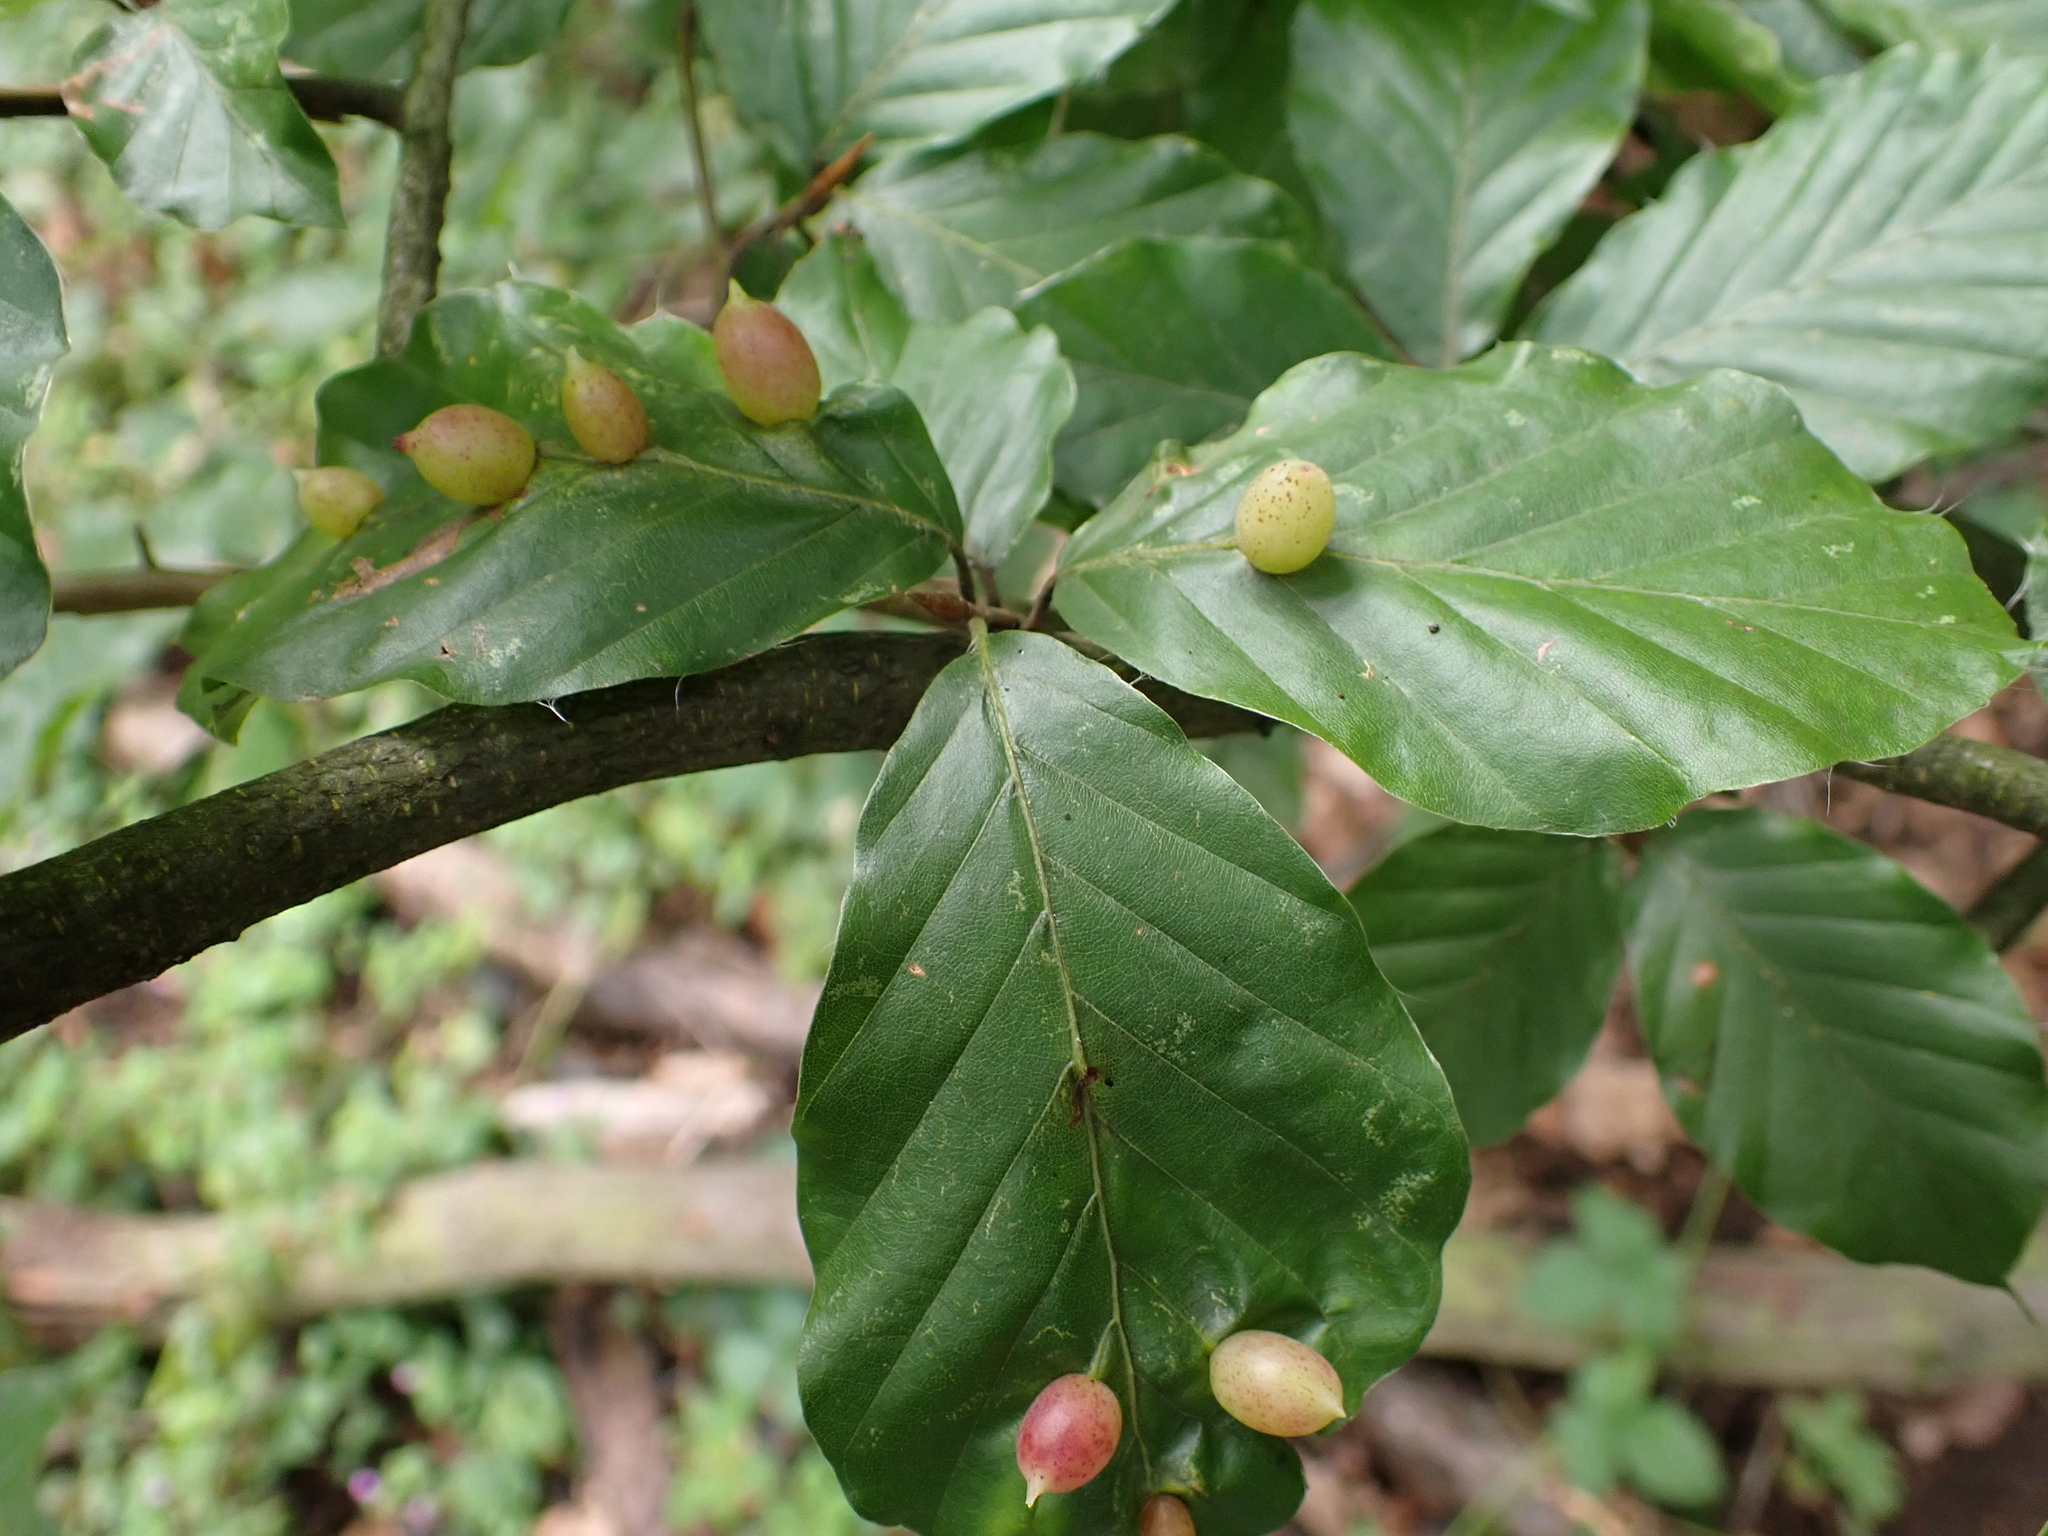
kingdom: Animalia
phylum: Arthropoda
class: Insecta
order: Diptera
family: Cecidomyiidae
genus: Mikiola
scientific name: Mikiola fagi
